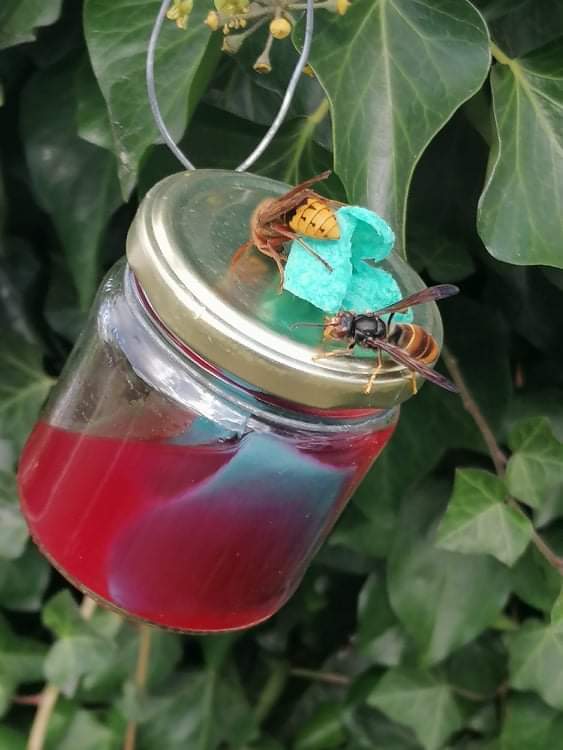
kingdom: Animalia
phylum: Arthropoda
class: Insecta
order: Hymenoptera
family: Vespidae
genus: Vespa
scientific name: Vespa velutina
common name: Asian hornet
